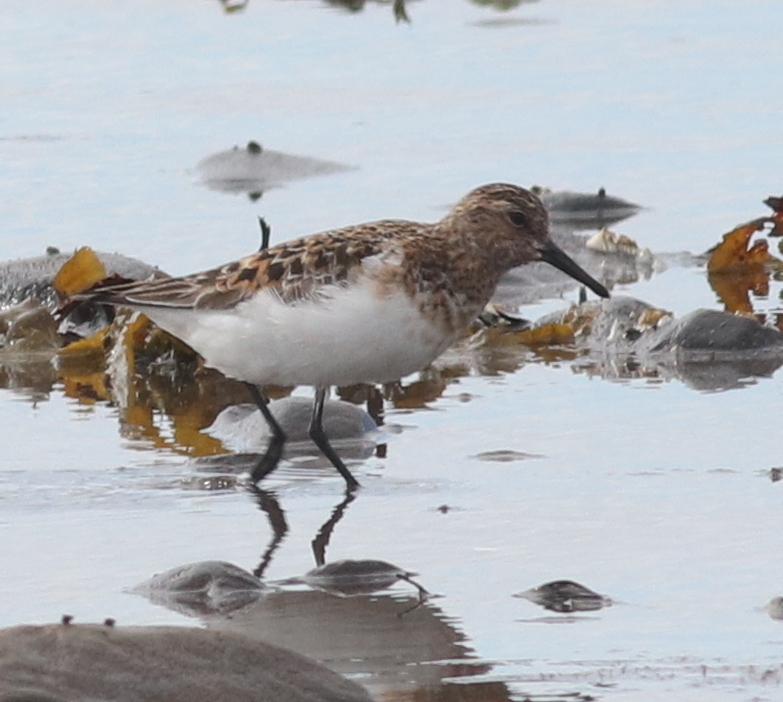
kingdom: Animalia
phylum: Chordata
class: Aves
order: Charadriiformes
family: Scolopacidae
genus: Calidris
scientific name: Calidris alba
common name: Sanderling
